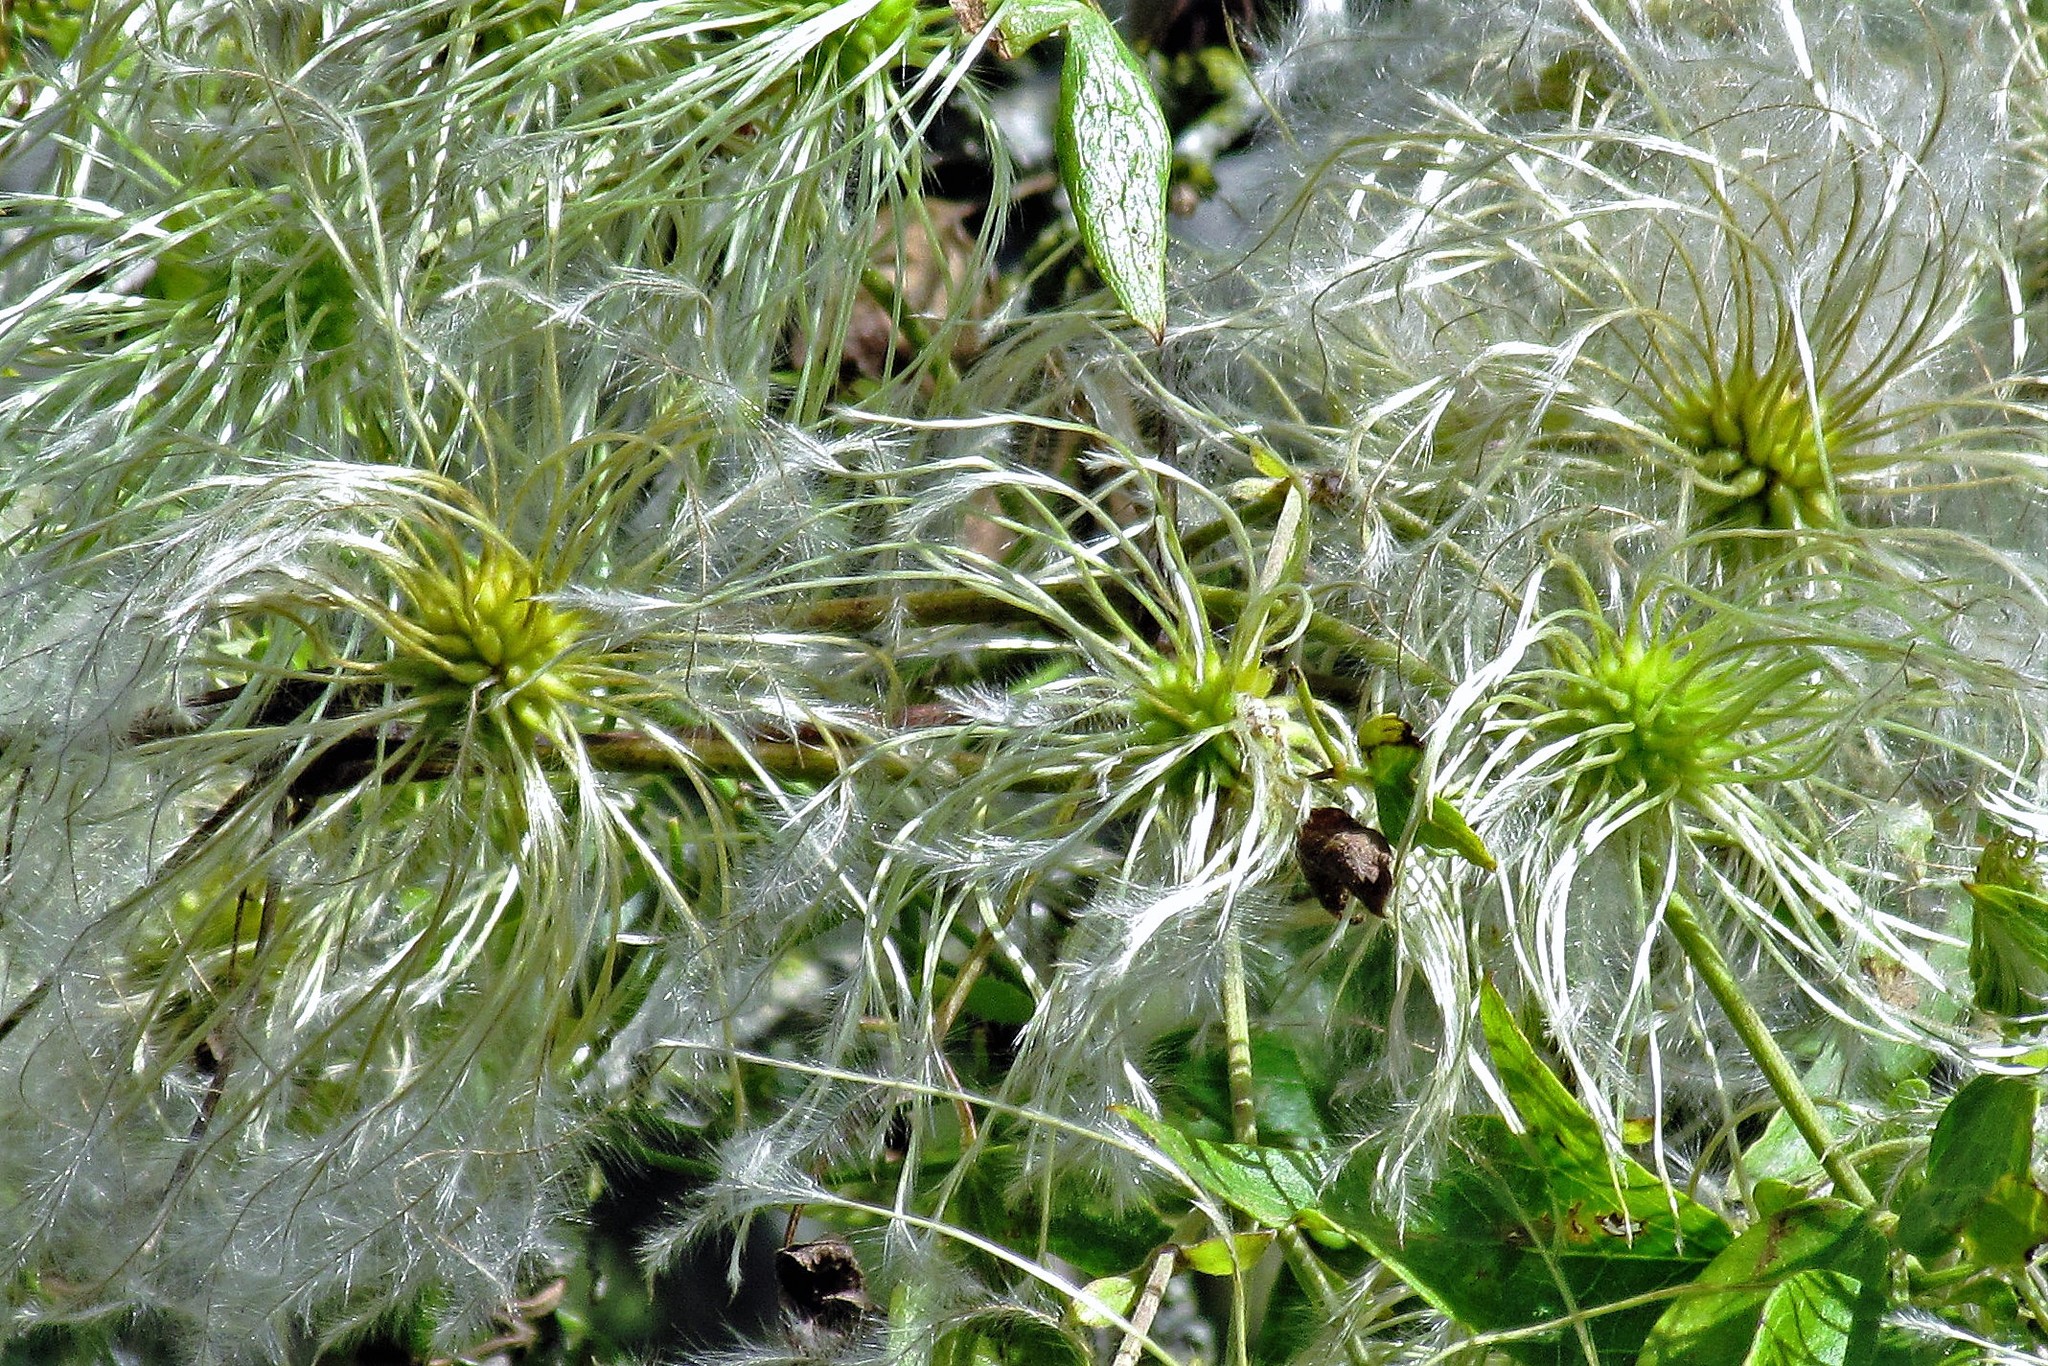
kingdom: Plantae
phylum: Tracheophyta
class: Magnoliopsida
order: Ranunculales
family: Ranunculaceae
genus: Clematis
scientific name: Clematis montevidensis
